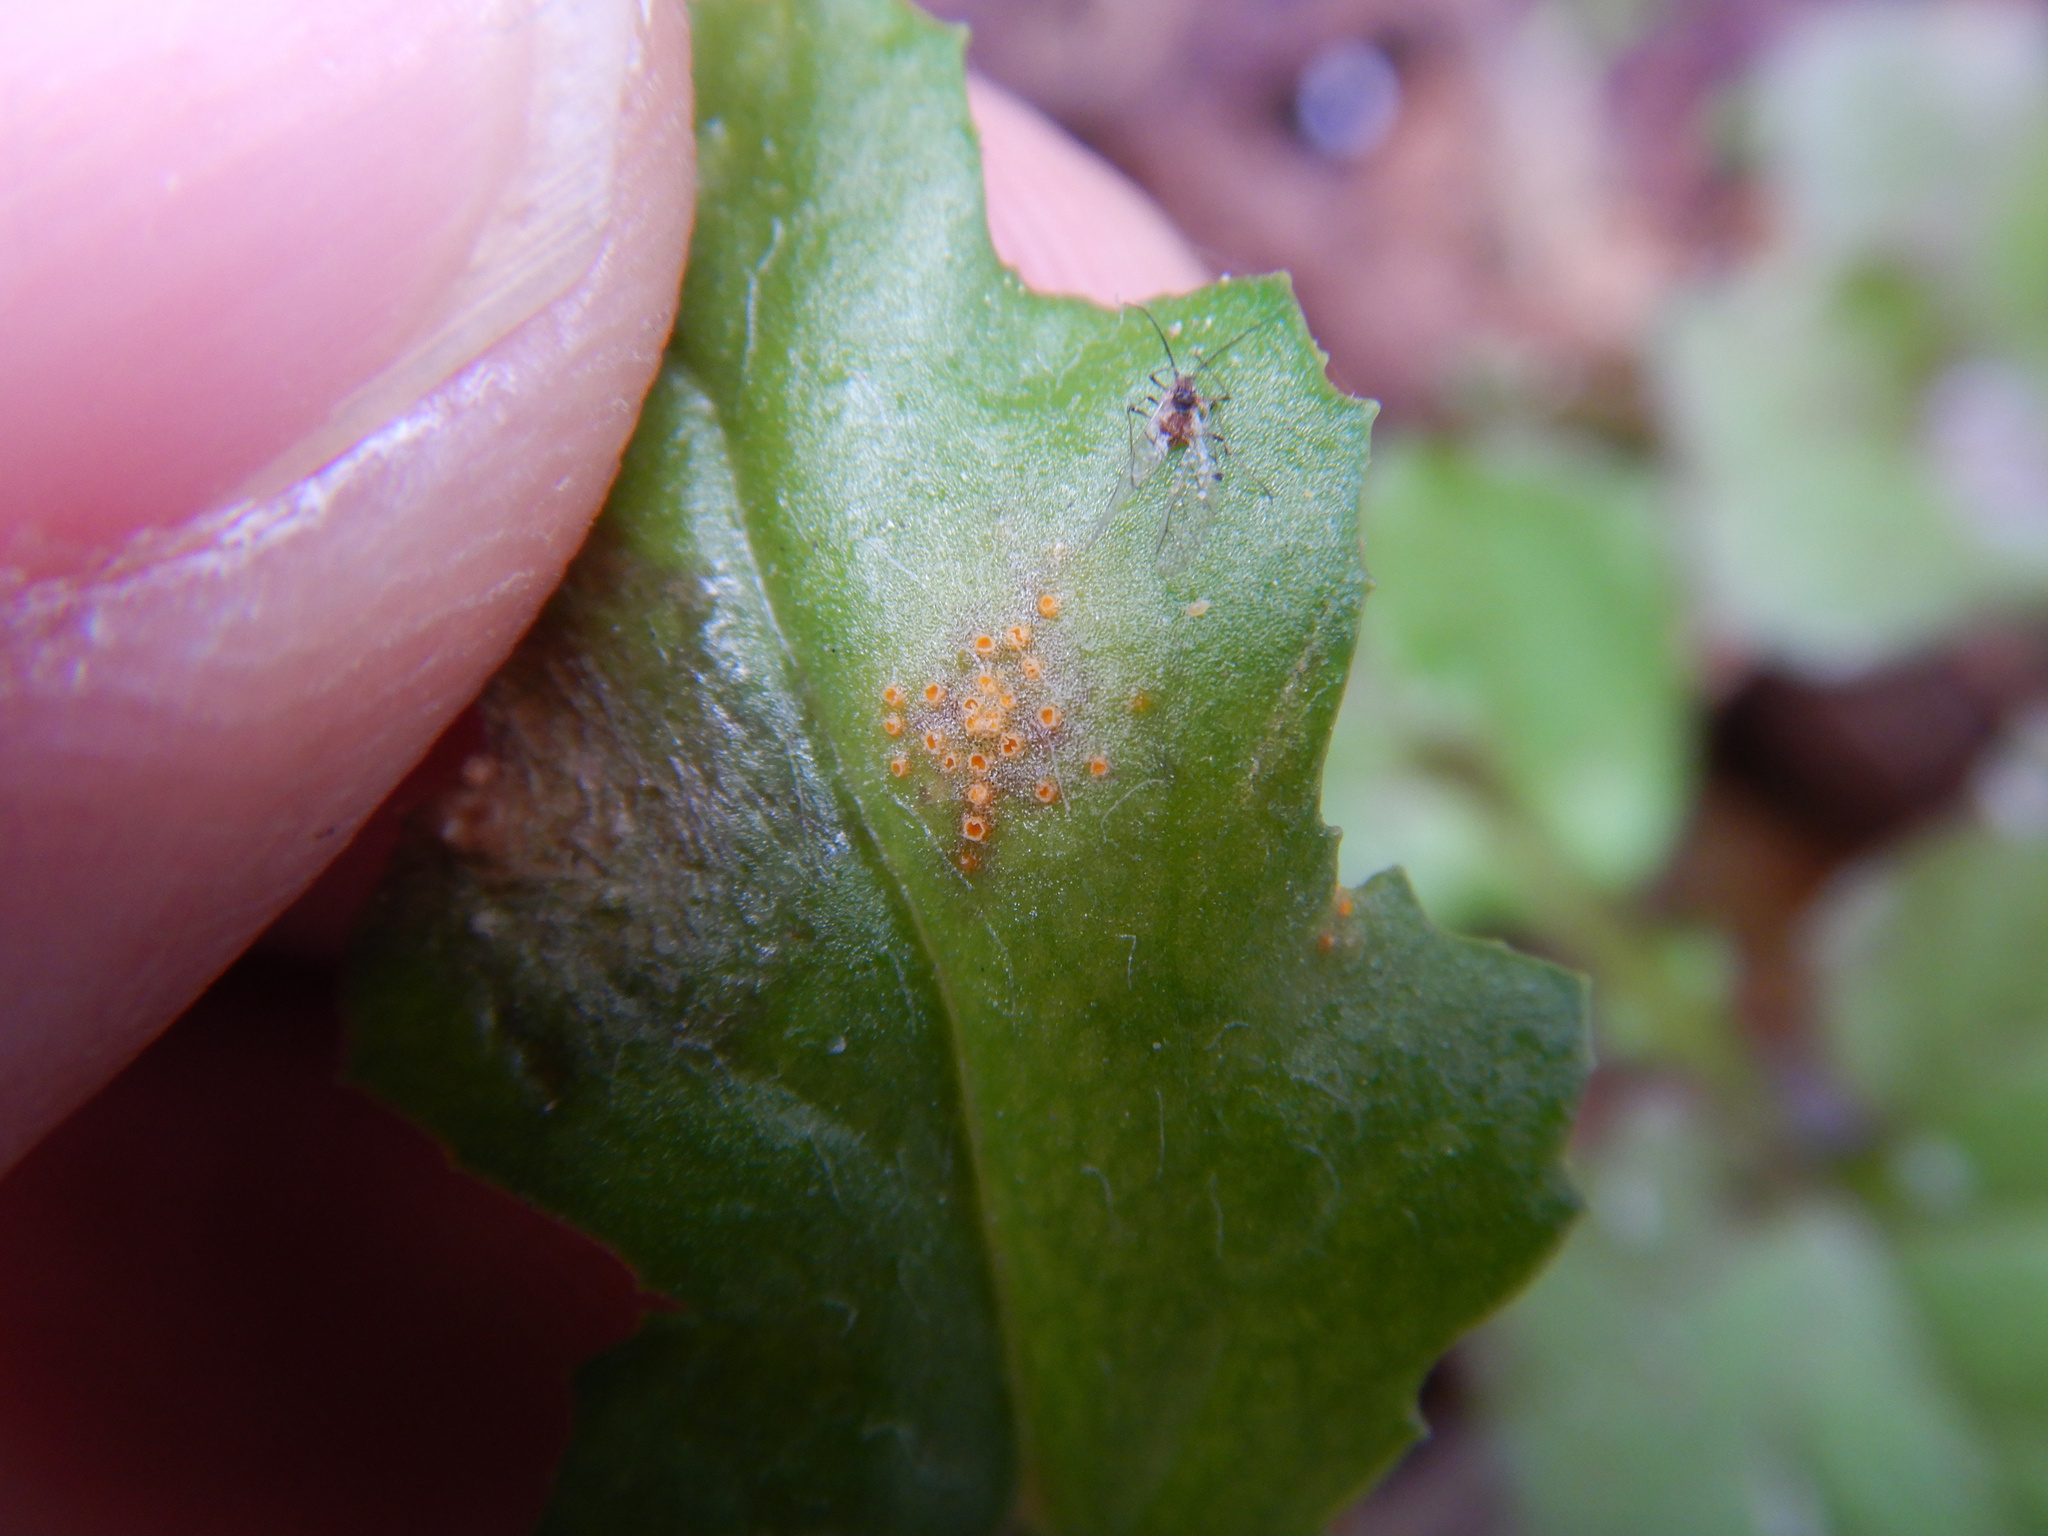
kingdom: Fungi
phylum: Basidiomycota
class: Pucciniomycetes
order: Pucciniales
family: Pucciniaceae
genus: Puccinia
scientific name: Puccinia lagenophorae
